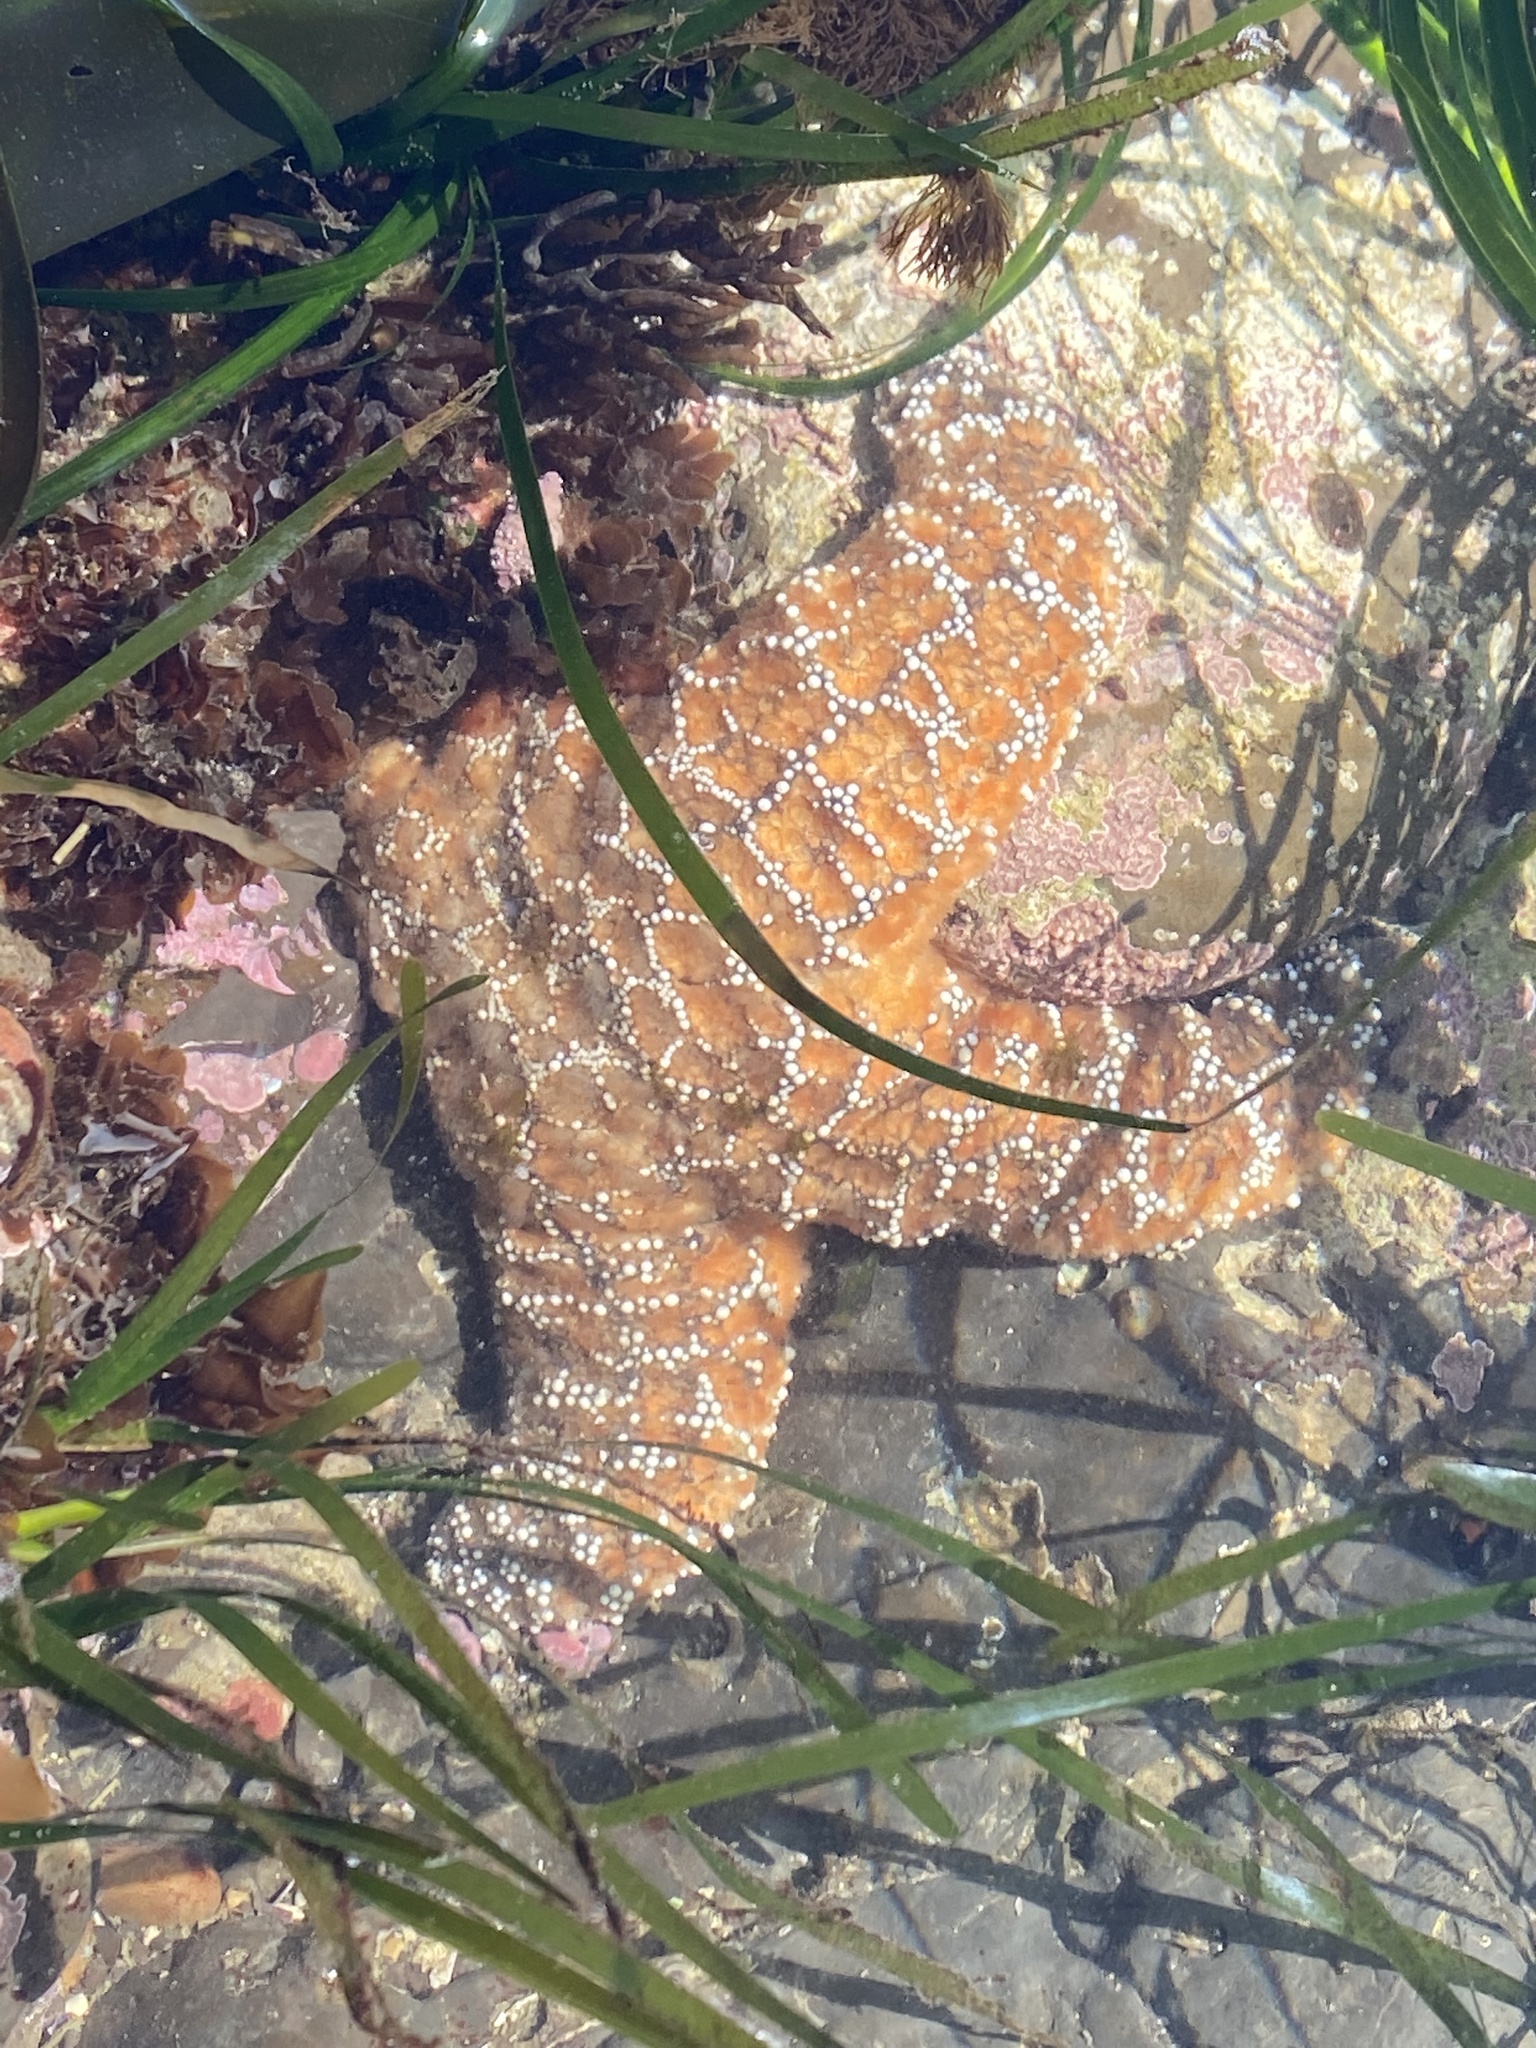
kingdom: Animalia
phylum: Echinodermata
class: Asteroidea
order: Forcipulatida
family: Asteriidae
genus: Pisaster
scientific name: Pisaster ochraceus
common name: Ochre stars
